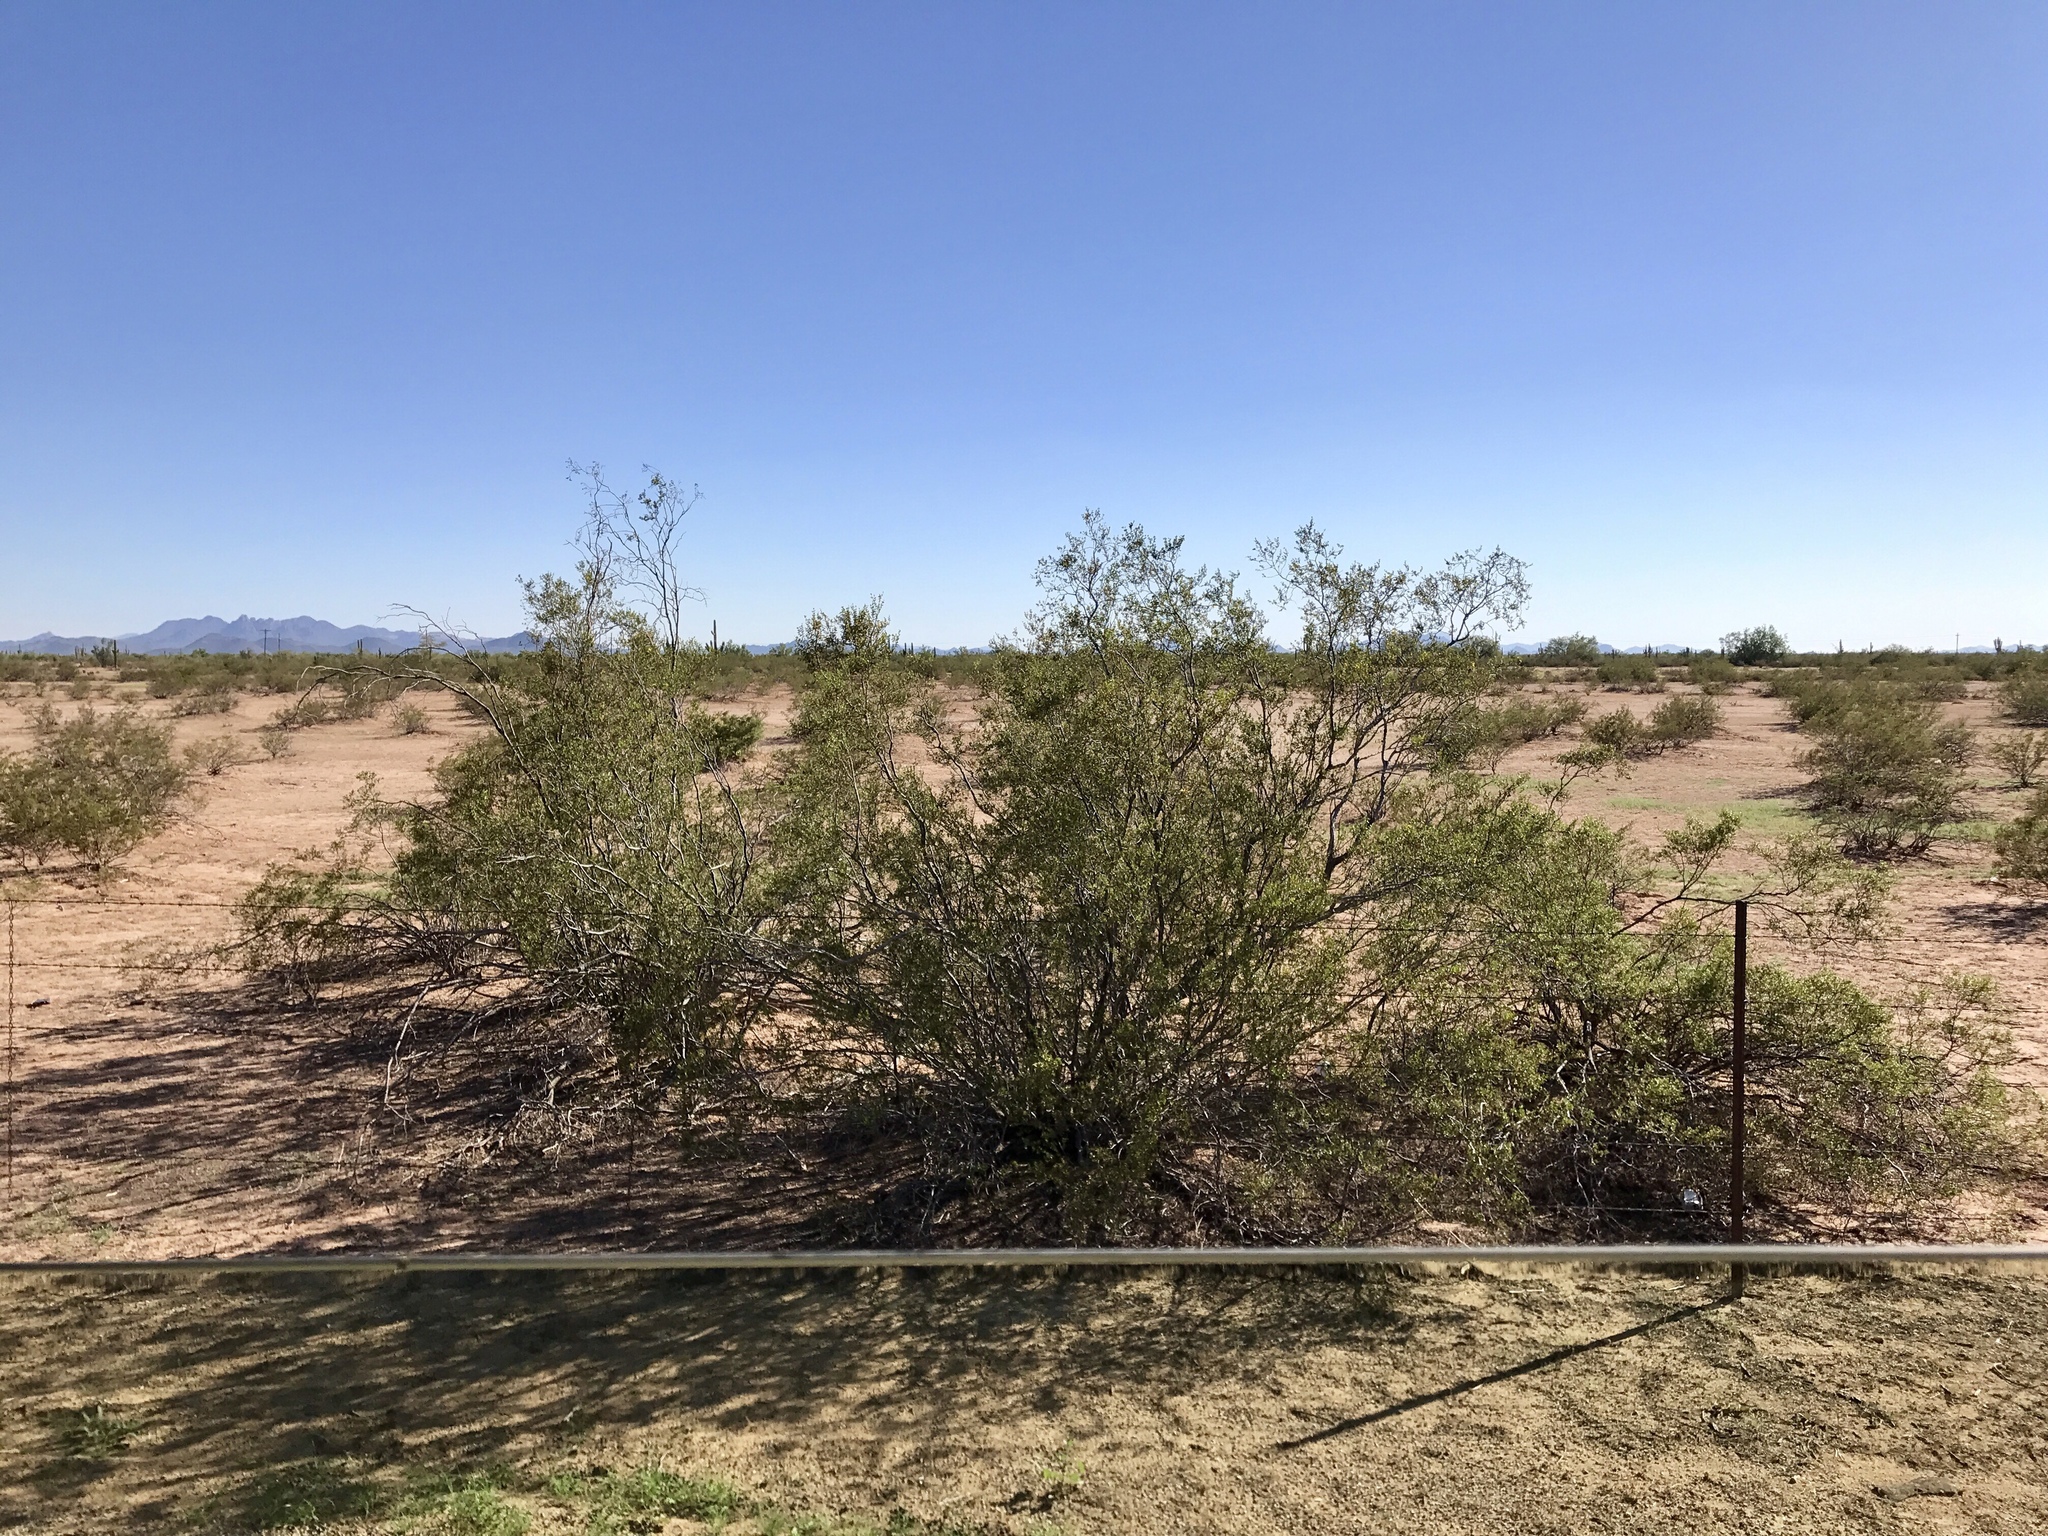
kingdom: Plantae
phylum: Tracheophyta
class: Magnoliopsida
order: Zygophyllales
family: Zygophyllaceae
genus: Larrea
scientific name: Larrea tridentata
